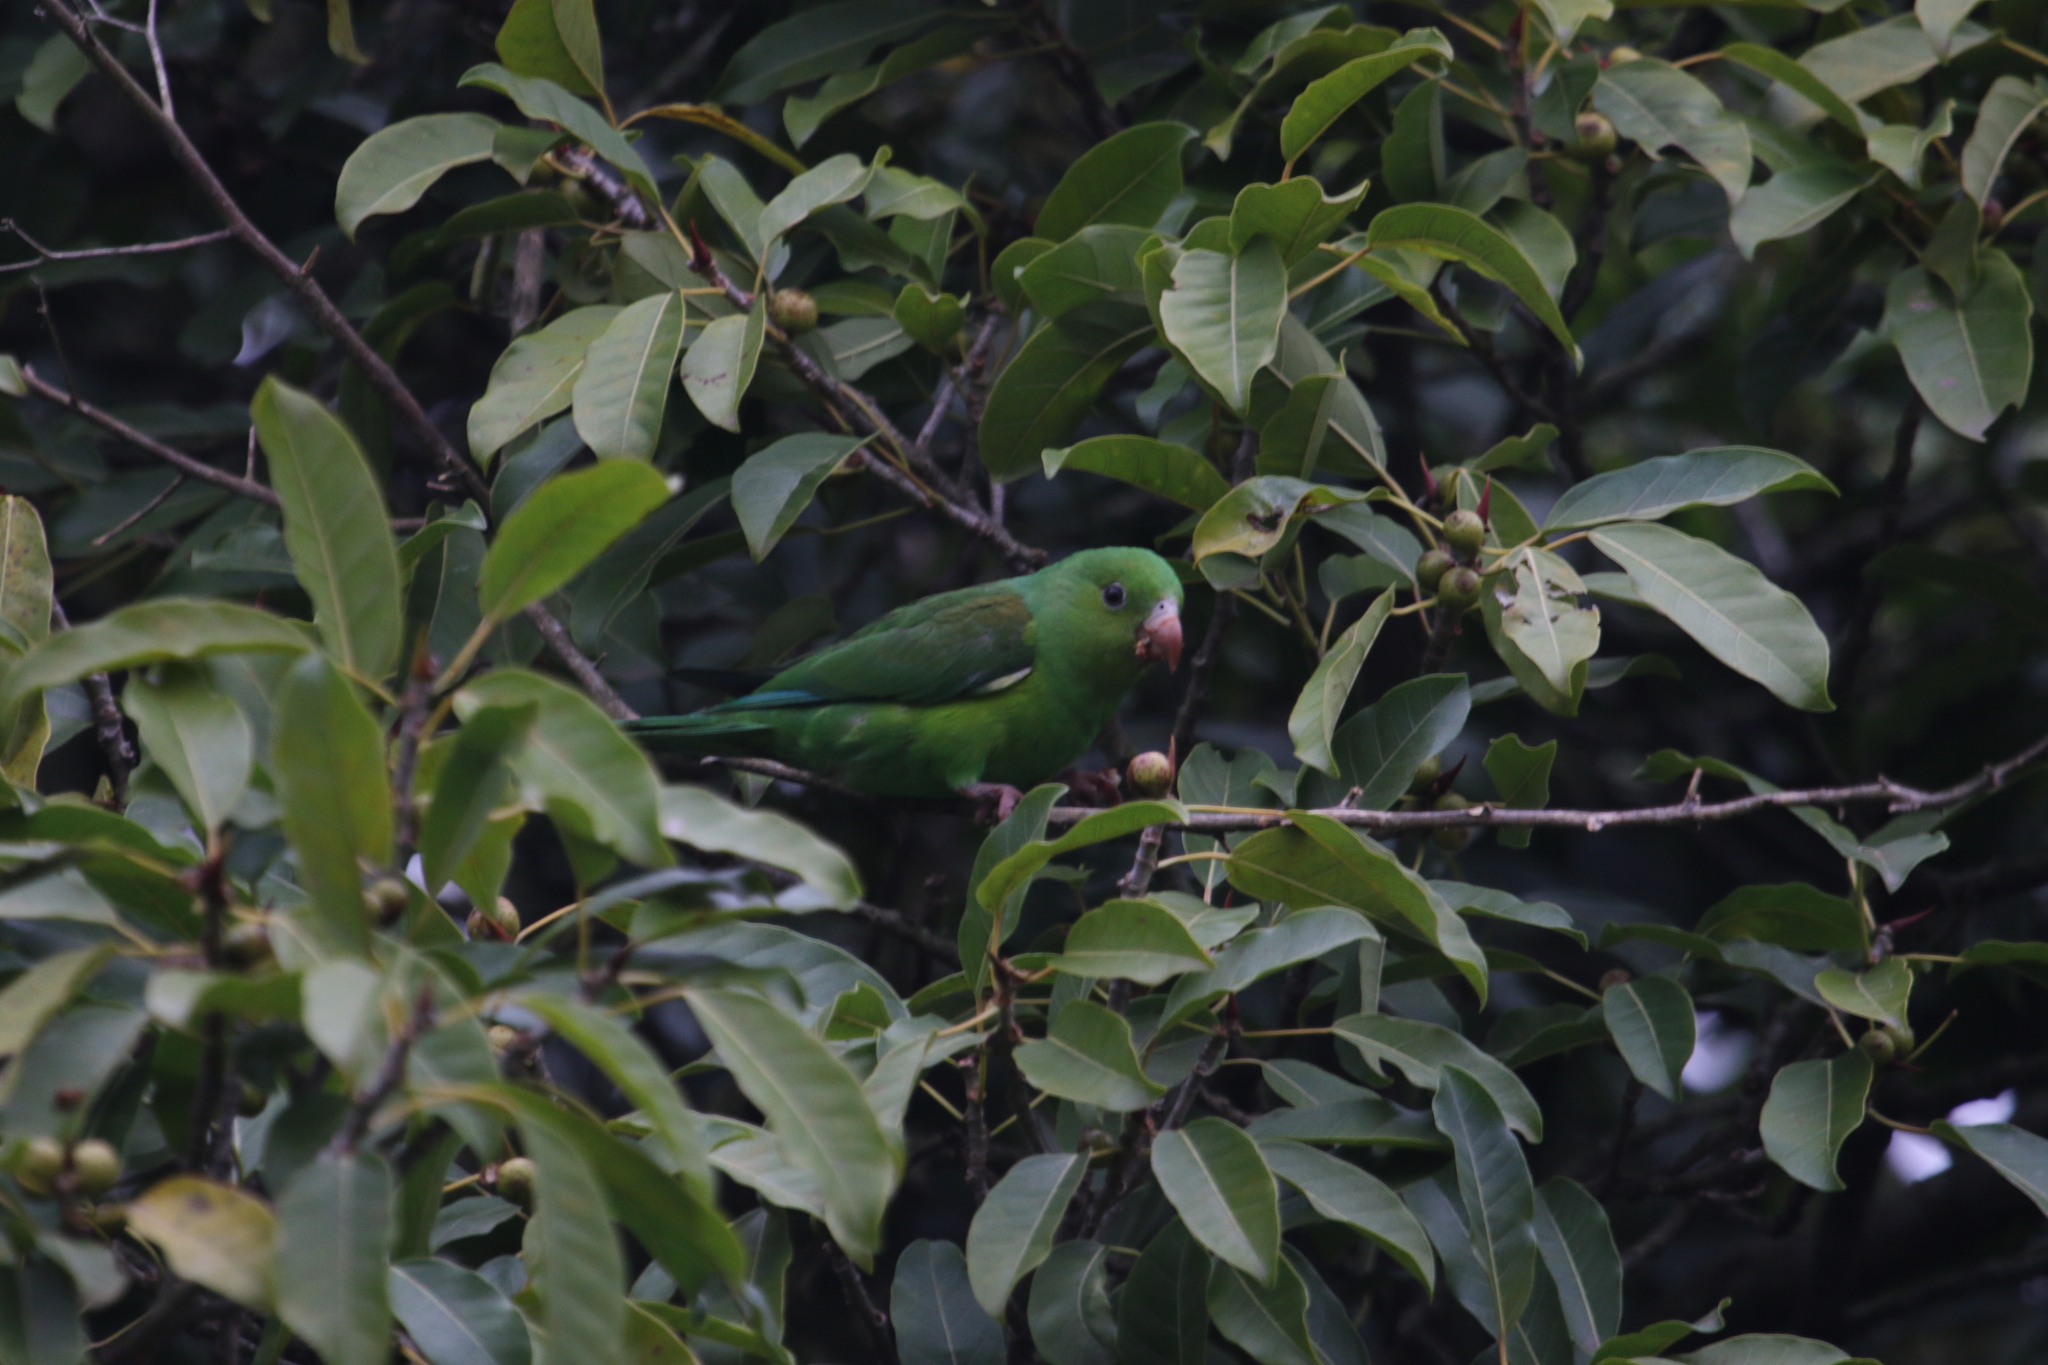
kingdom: Animalia
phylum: Chordata
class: Aves
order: Psittaciformes
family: Psittacidae
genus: Brotogeris
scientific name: Brotogeris tirica
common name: Plain parakeet
